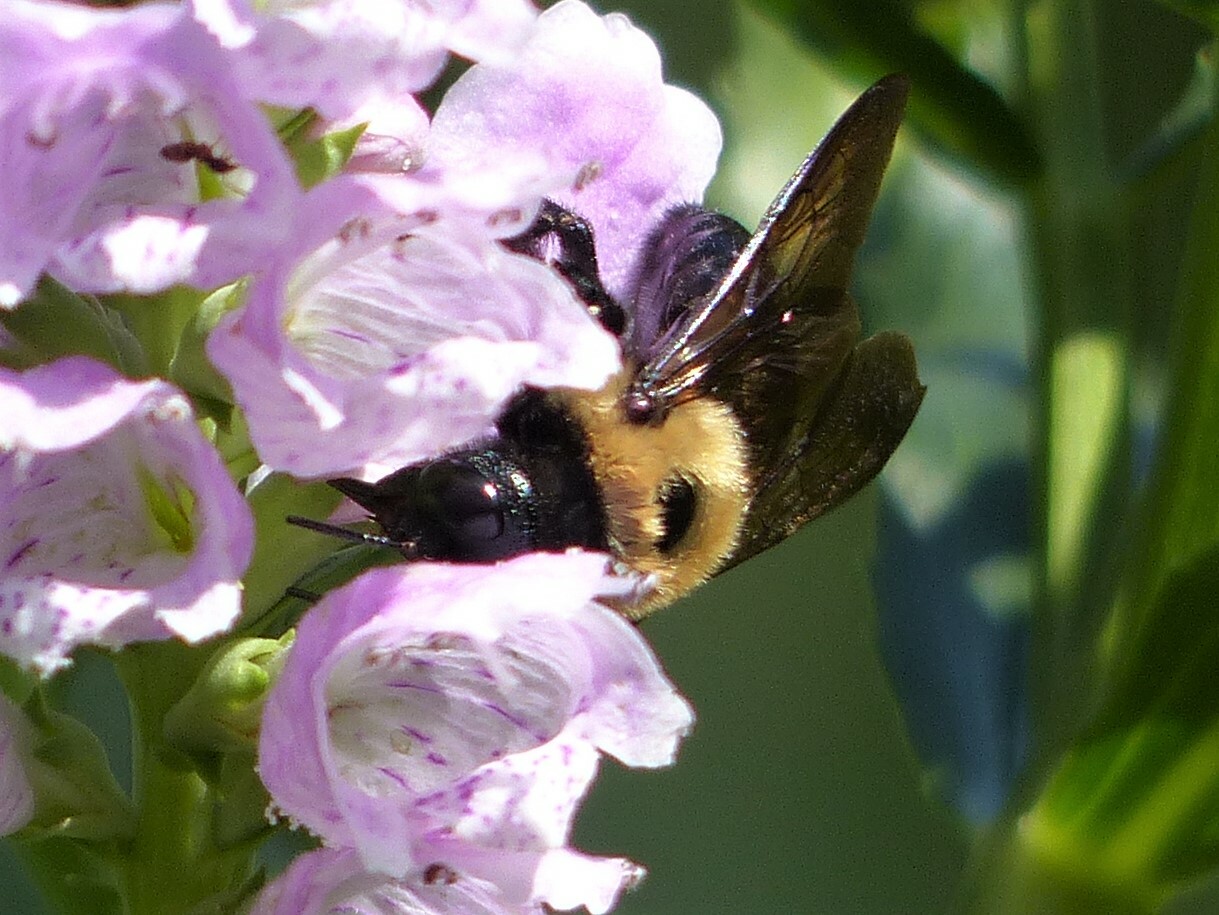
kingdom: Animalia
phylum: Arthropoda
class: Insecta
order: Hymenoptera
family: Apidae
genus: Xylocopa
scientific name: Xylocopa virginica
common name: Carpenter bee
